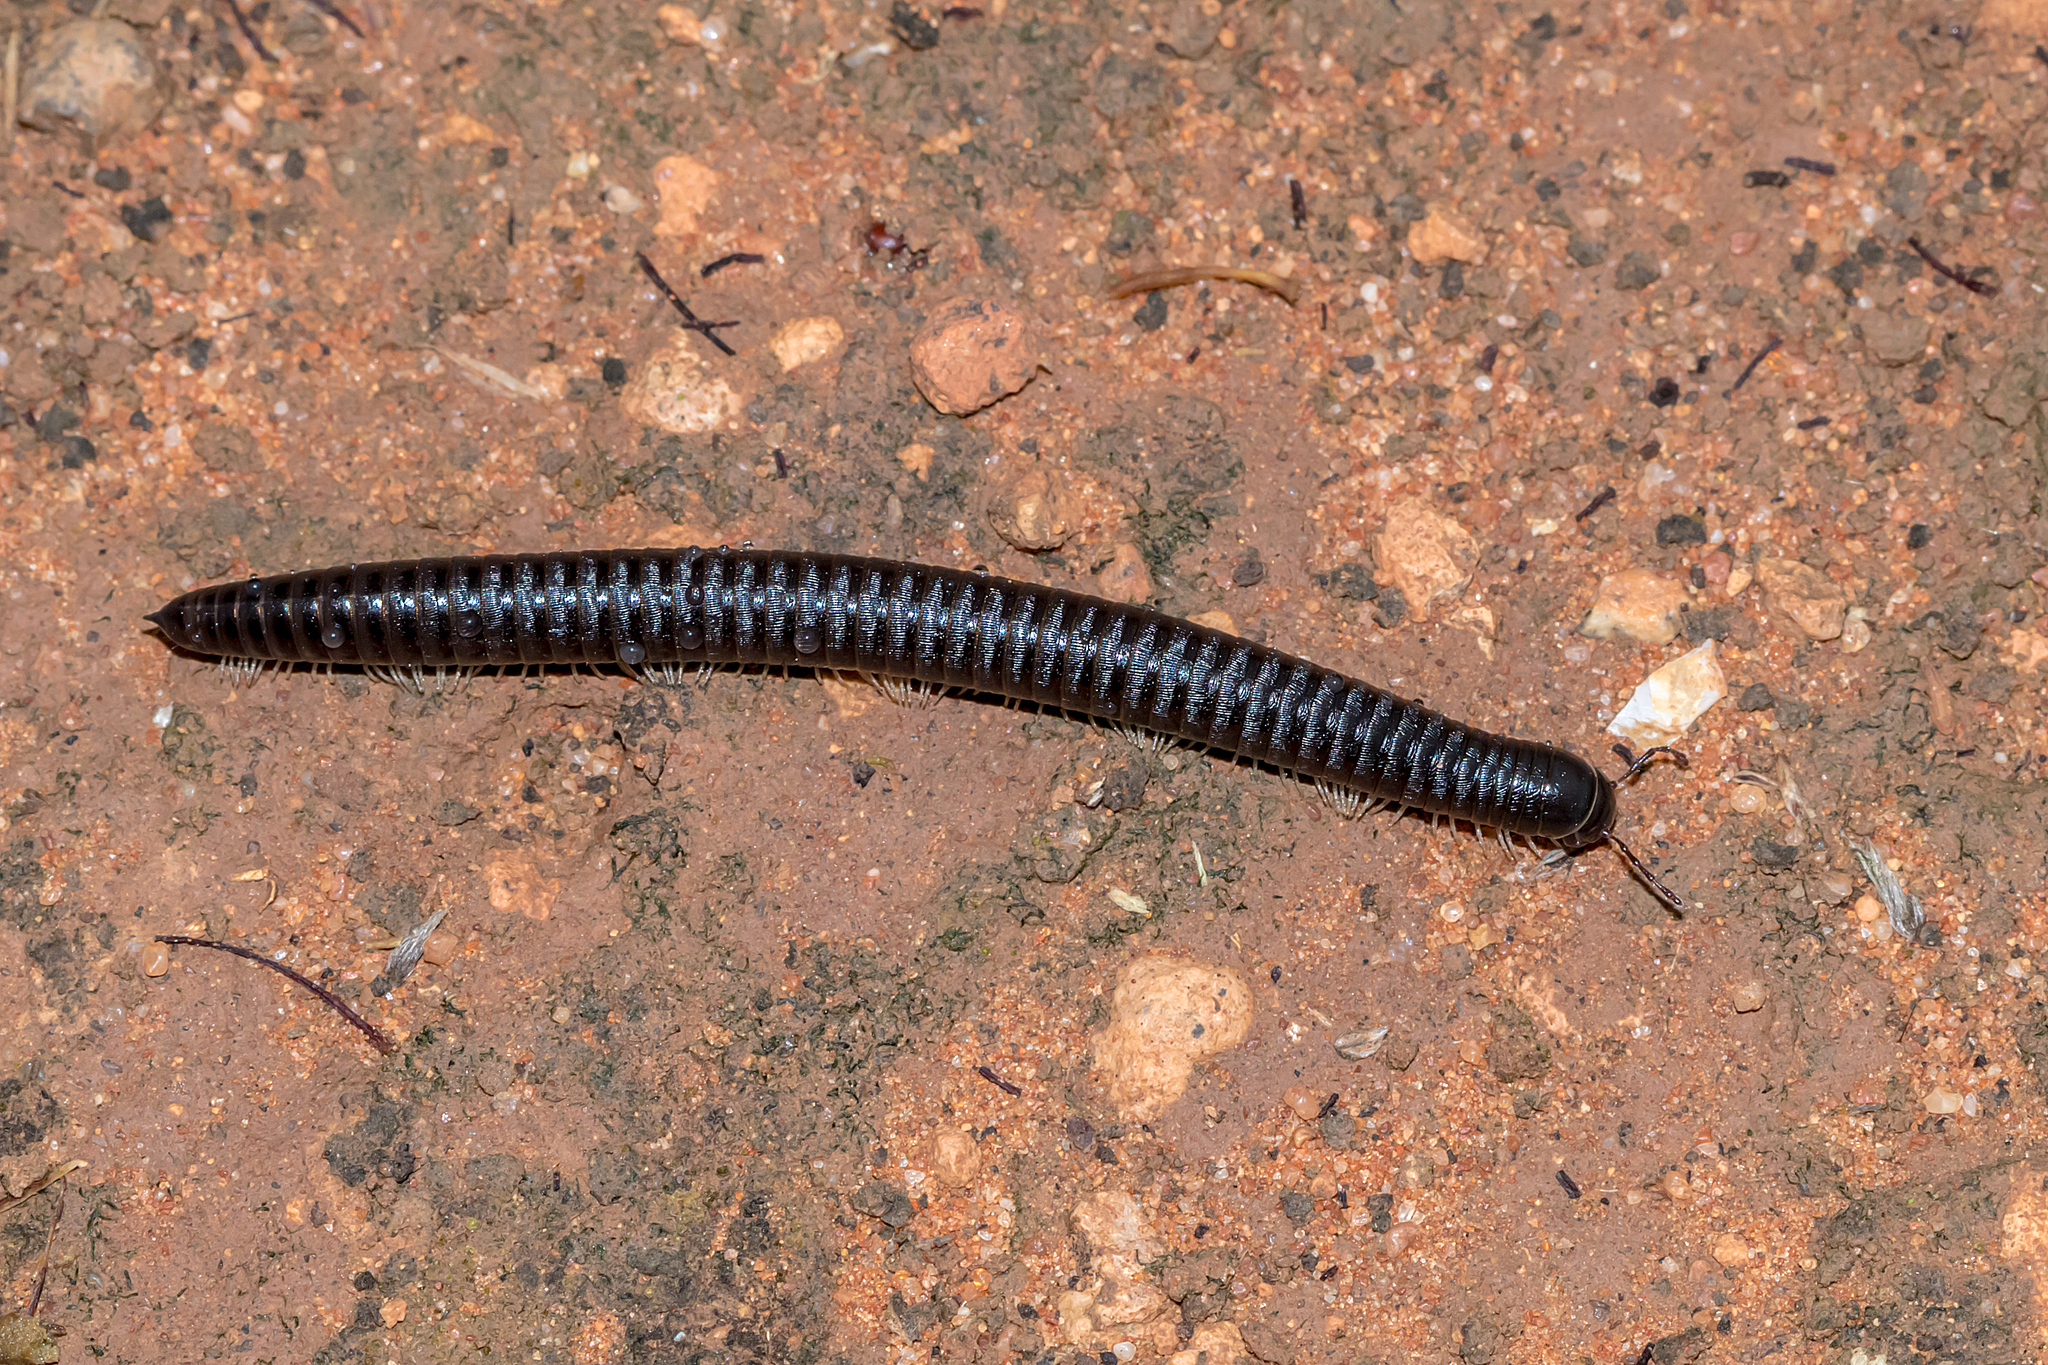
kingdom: Animalia
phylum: Arthropoda
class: Diplopoda
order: Julida
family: Julidae
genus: Ommatoiulus
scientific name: Ommatoiulus moreleti
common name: Portuguese millipede
